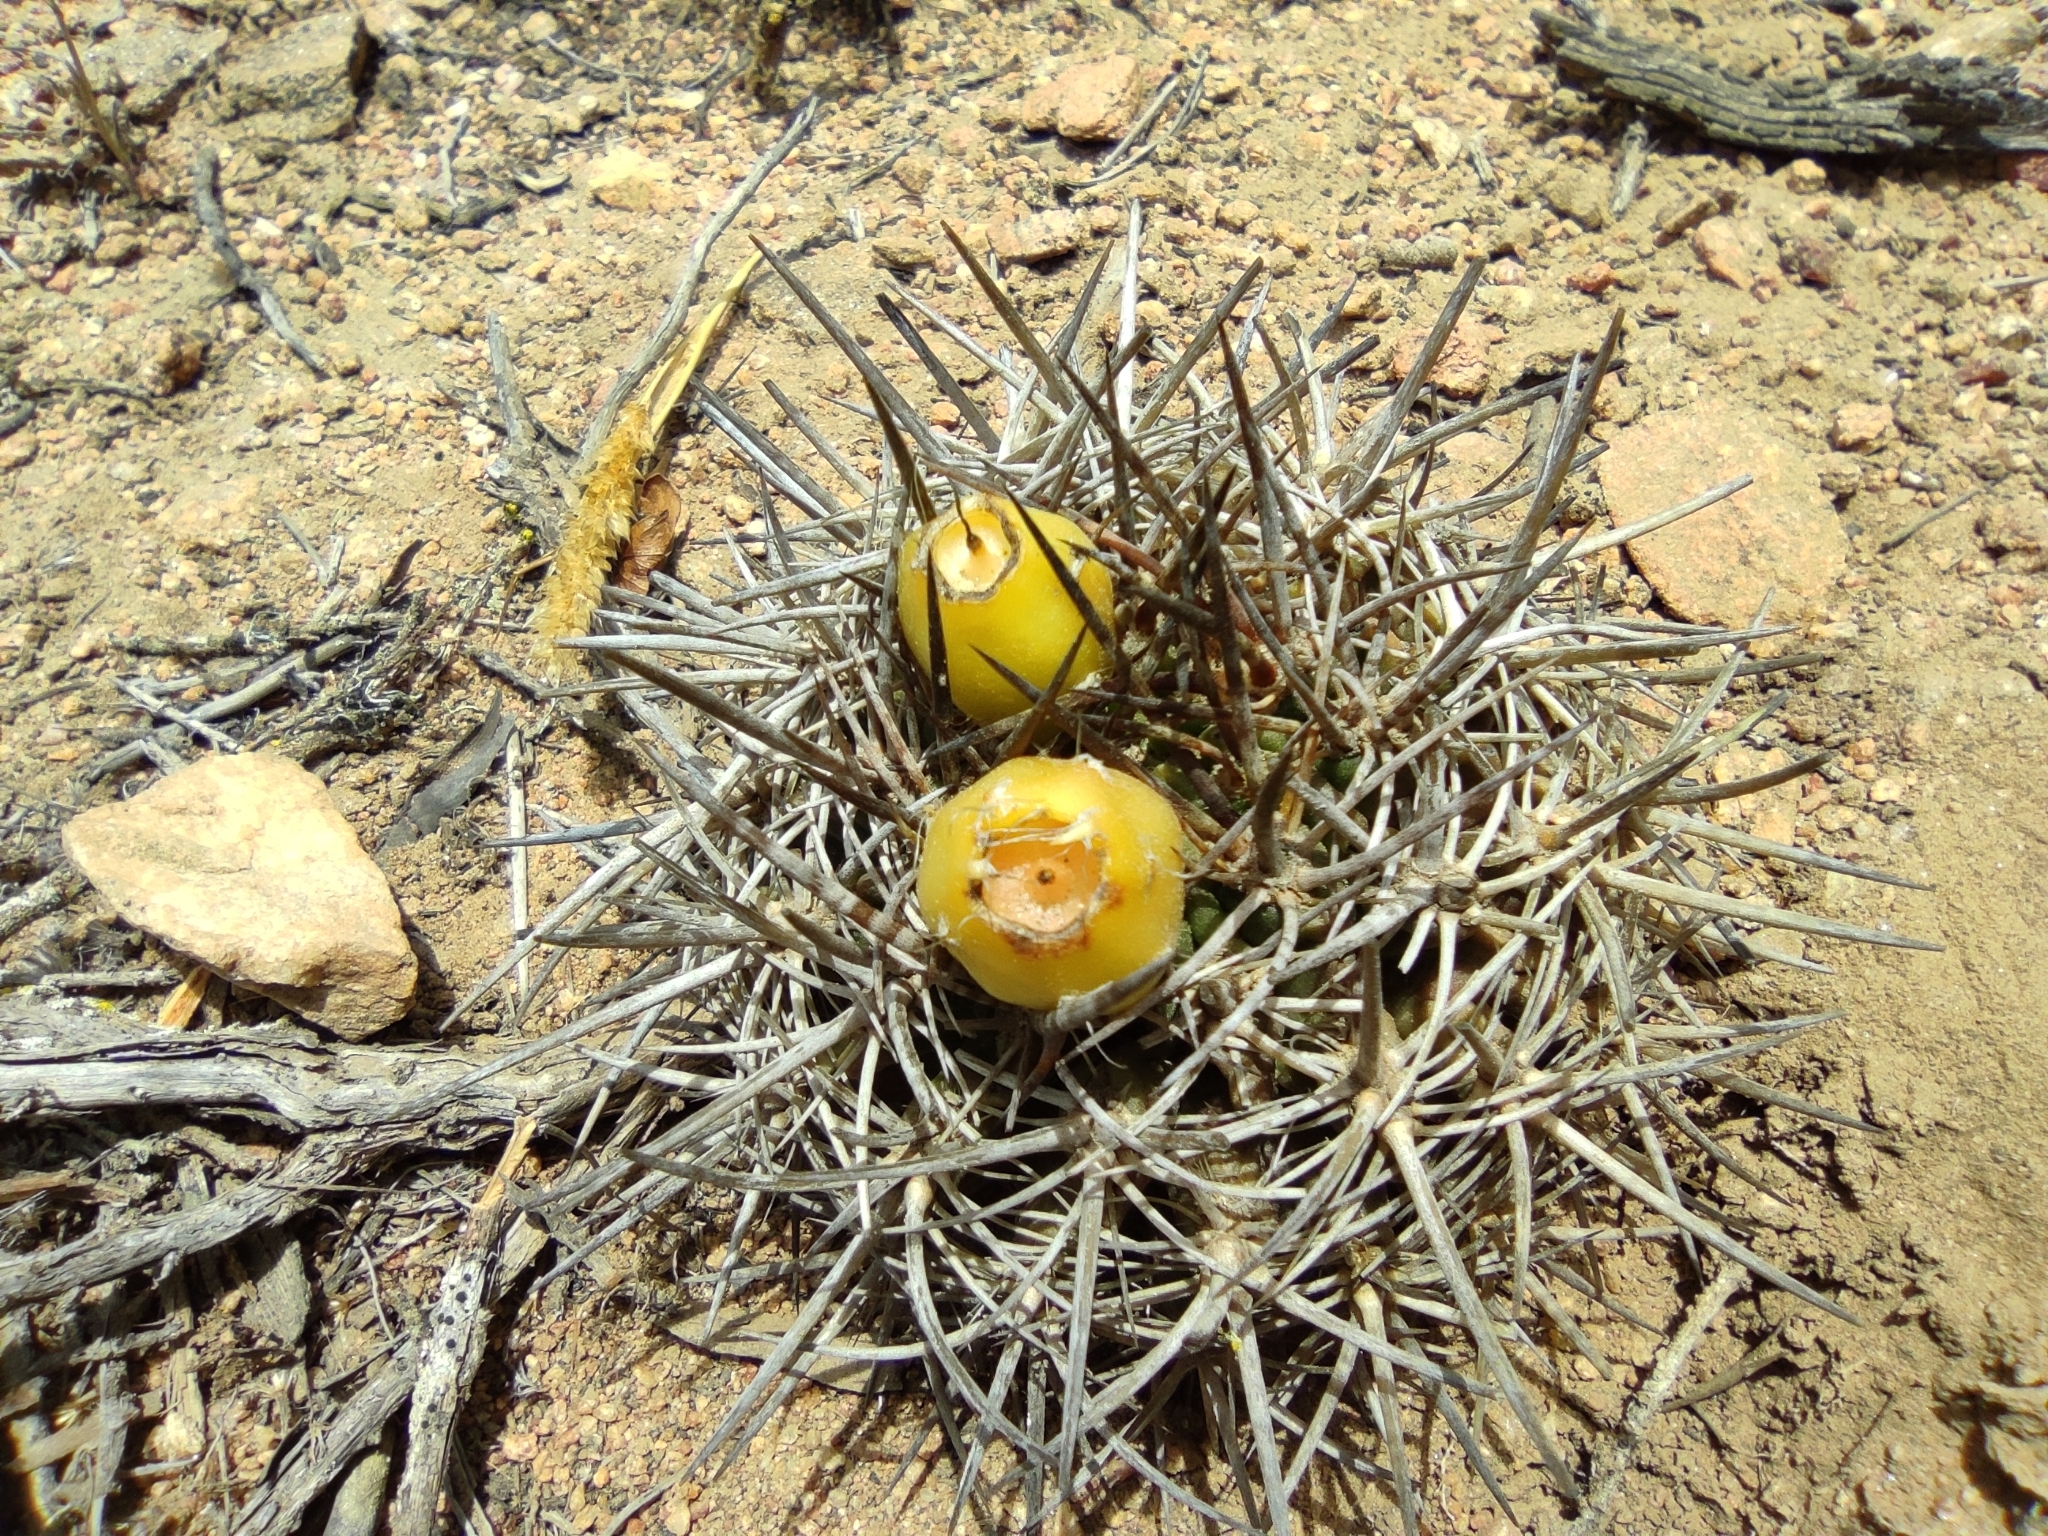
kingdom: Plantae
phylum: Tracheophyta
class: Magnoliopsida
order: Caryophyllales
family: Cactaceae
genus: Eriosyce
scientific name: Eriosyce heinrichiana
